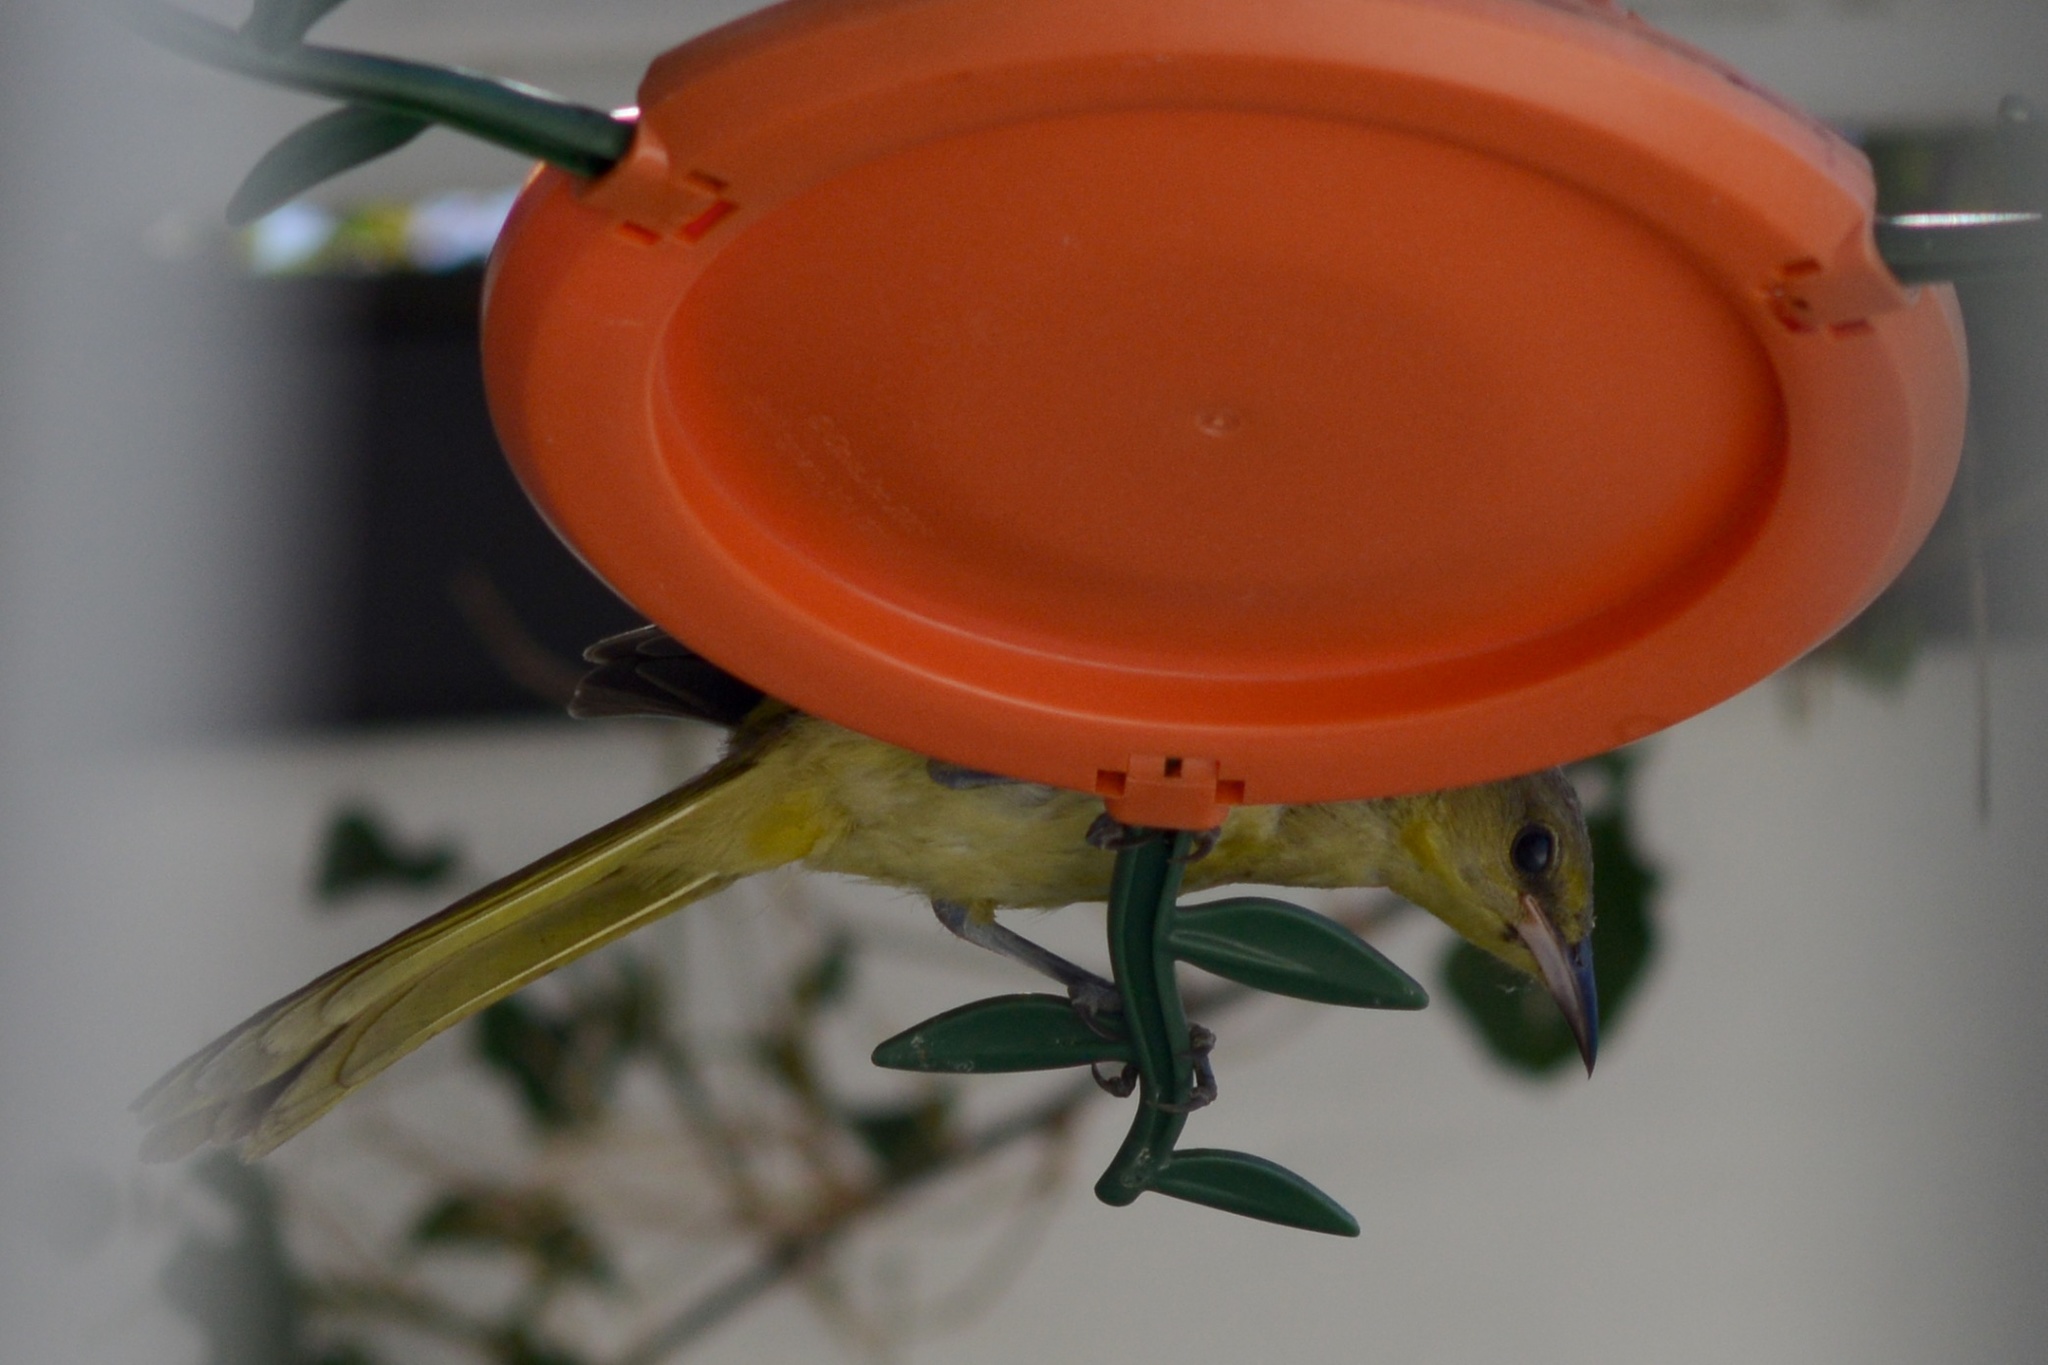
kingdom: Animalia
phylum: Chordata
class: Aves
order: Passeriformes
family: Icteridae
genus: Icterus
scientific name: Icterus cucullatus
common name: Hooded oriole
